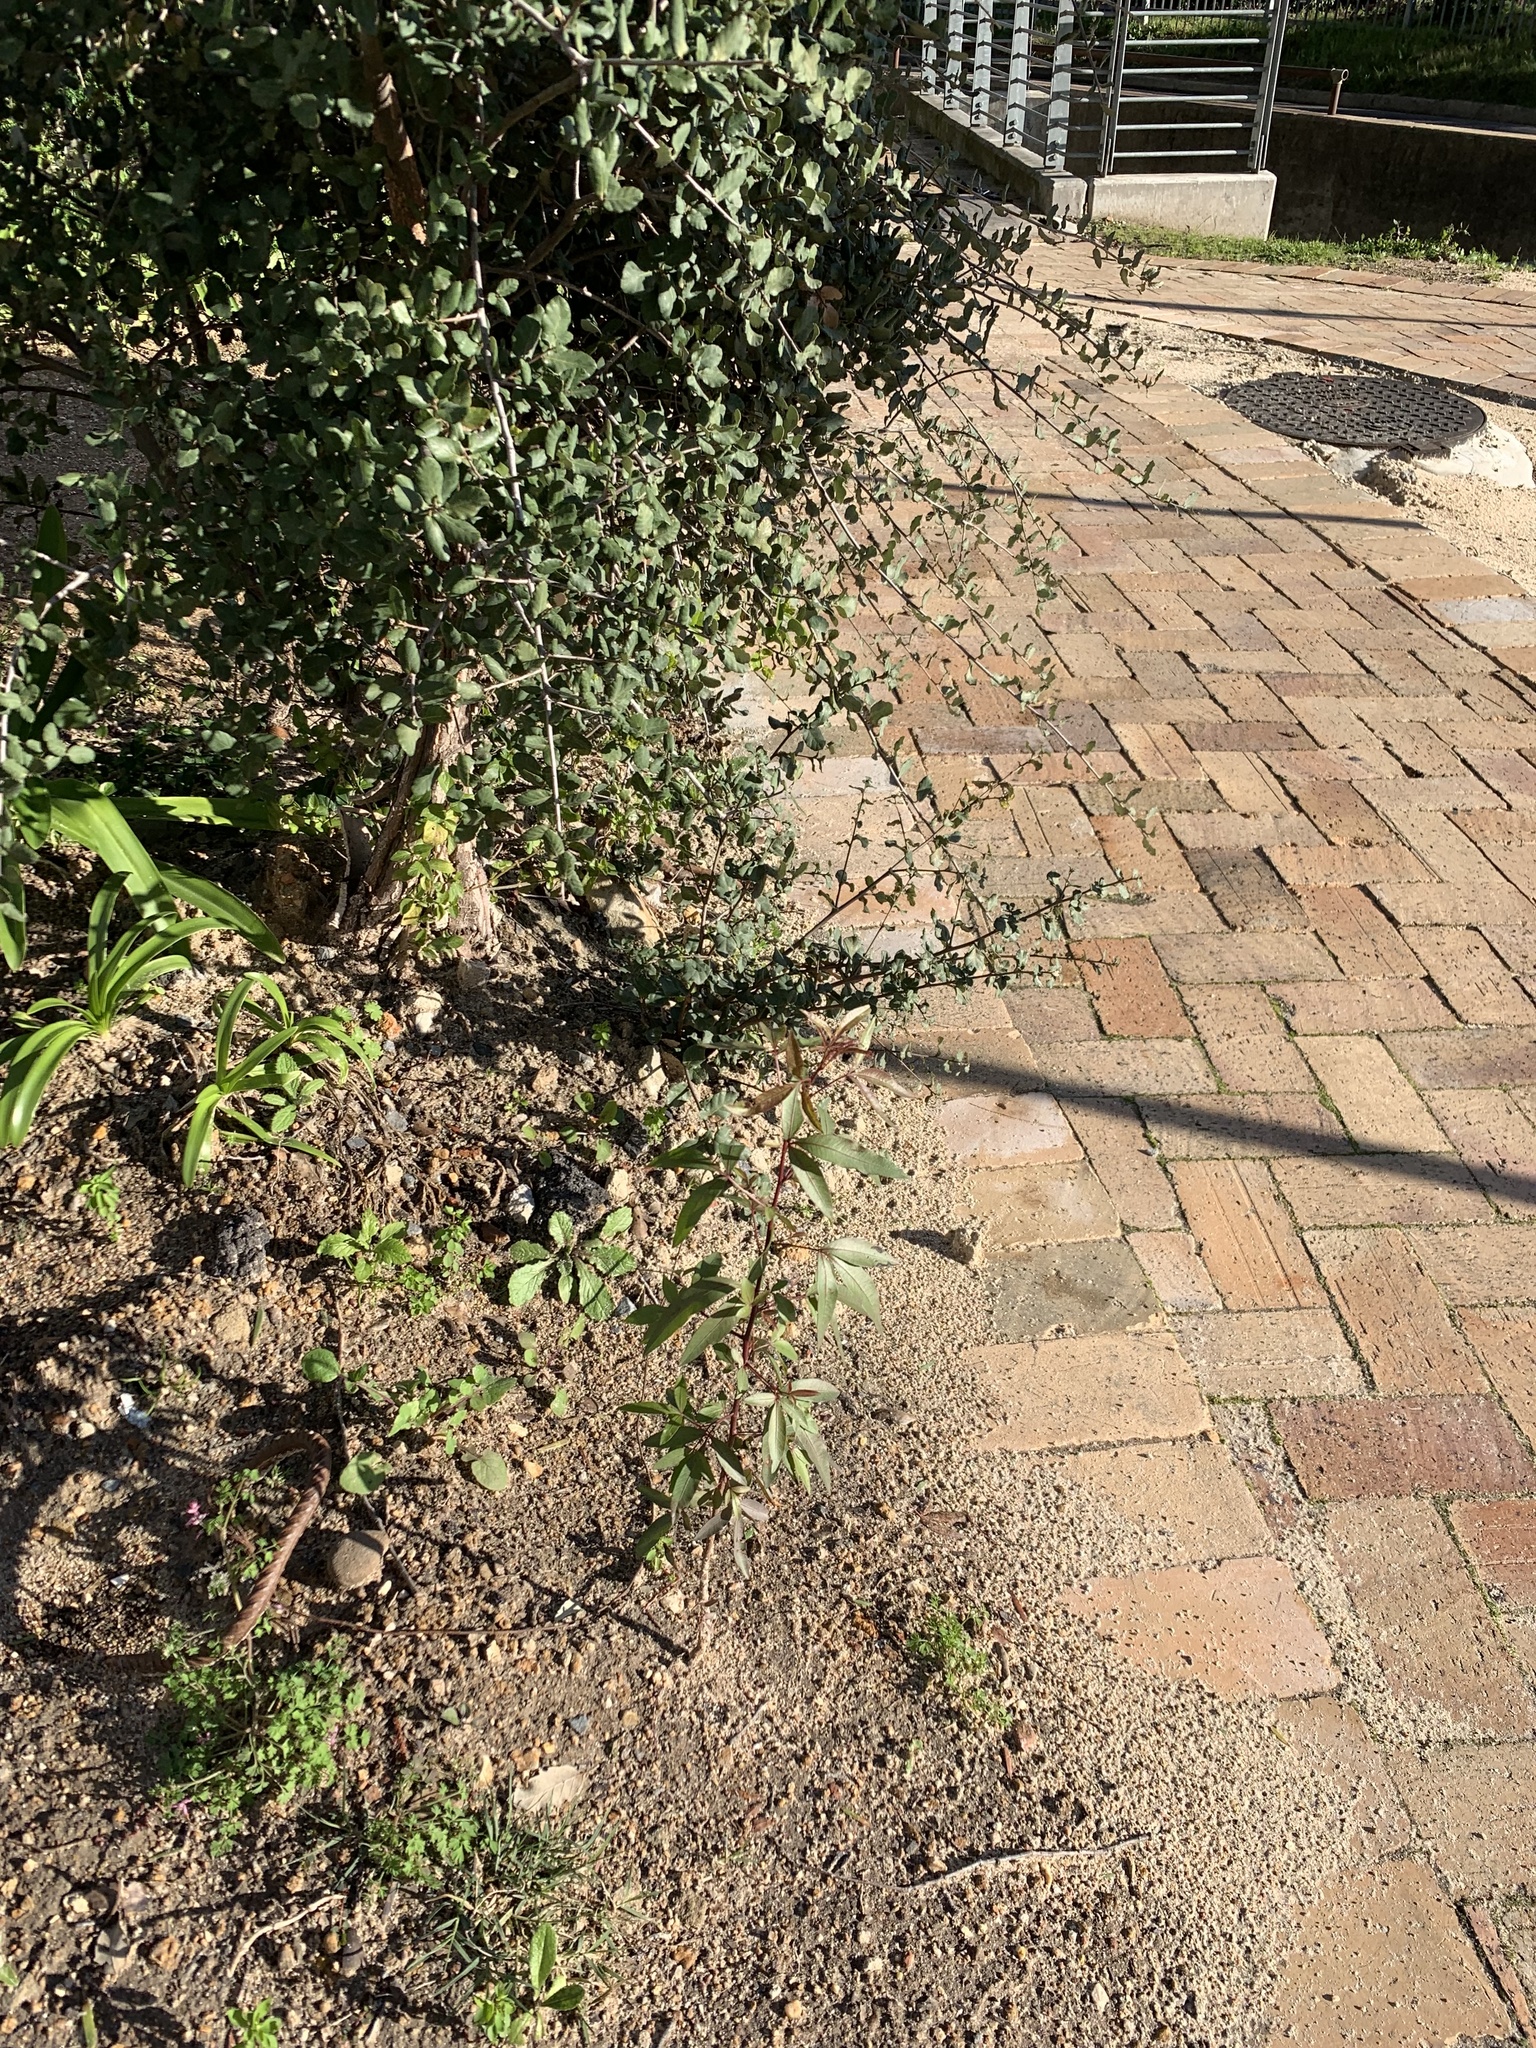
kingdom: Plantae
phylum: Tracheophyta
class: Magnoliopsida
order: Sapindales
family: Anacardiaceae
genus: Searsia
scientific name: Searsia pendulina
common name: White karee
